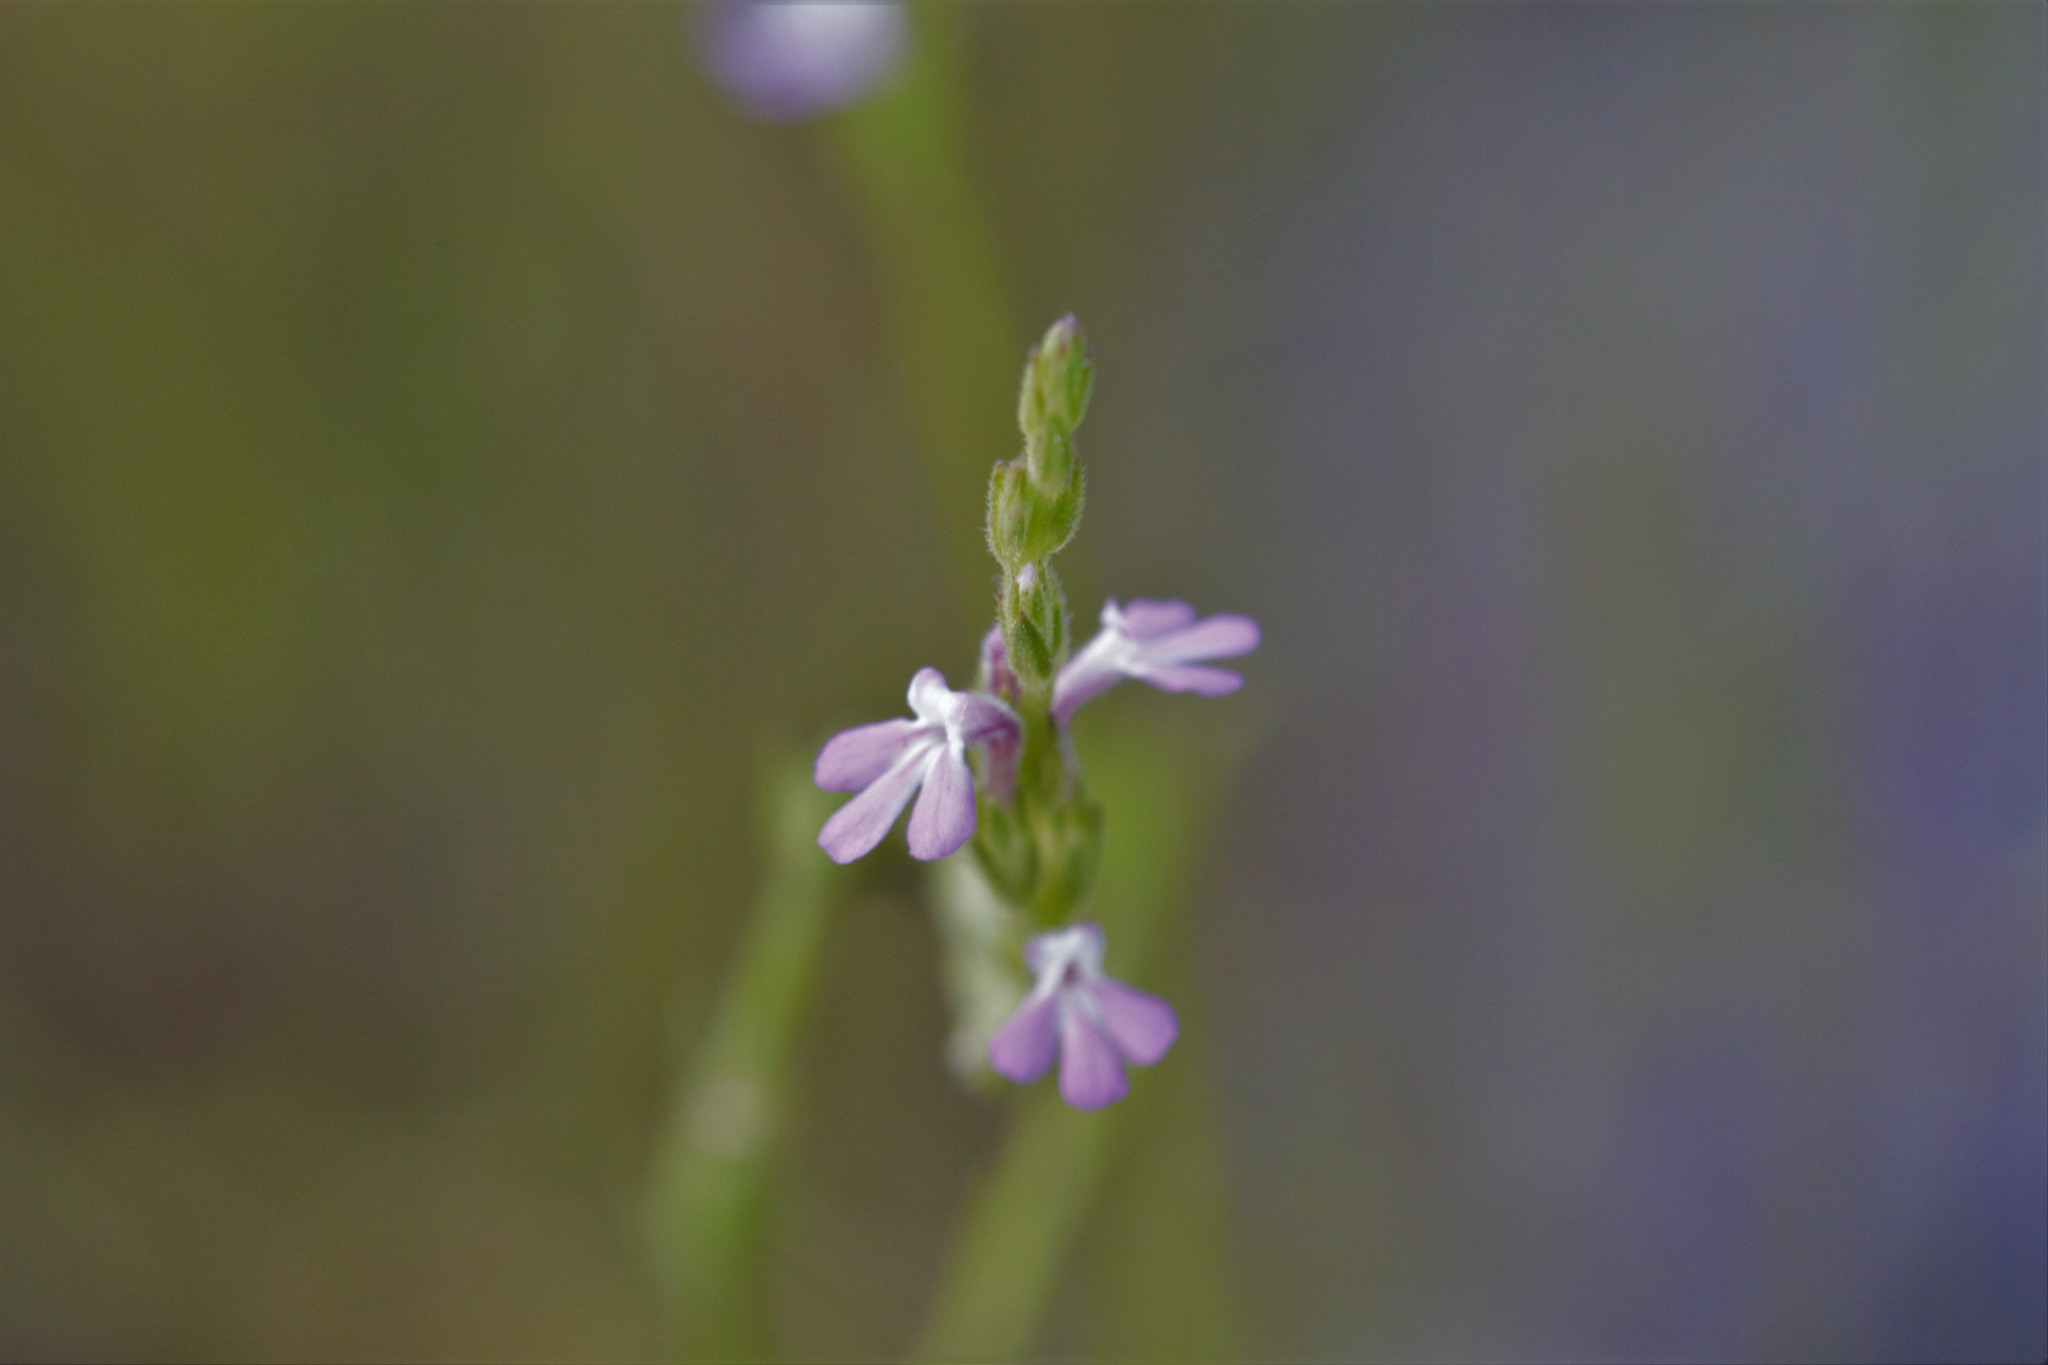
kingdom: Plantae
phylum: Tracheophyta
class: Magnoliopsida
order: Lamiales
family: Orobanchaceae
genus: Striga
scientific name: Striga parviflora
